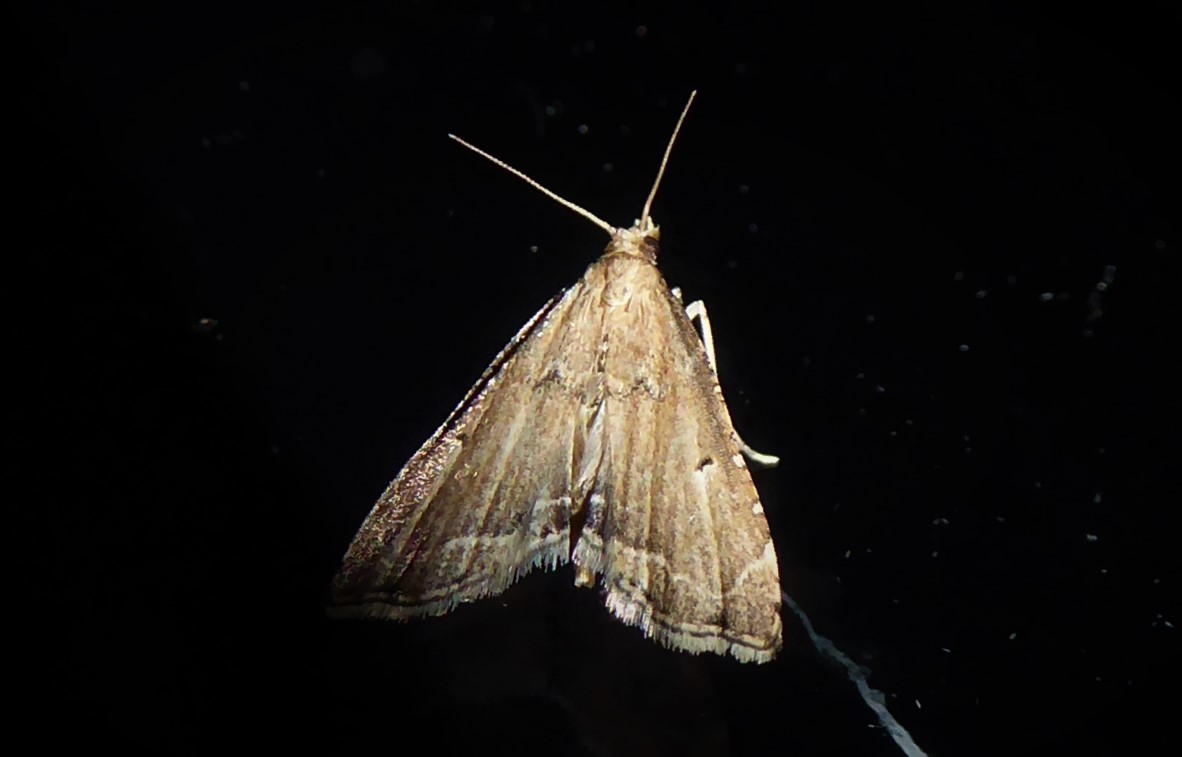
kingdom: Animalia
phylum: Arthropoda
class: Insecta
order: Lepidoptera
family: Crambidae
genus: Diplopseustis
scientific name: Diplopseustis perieresalis
